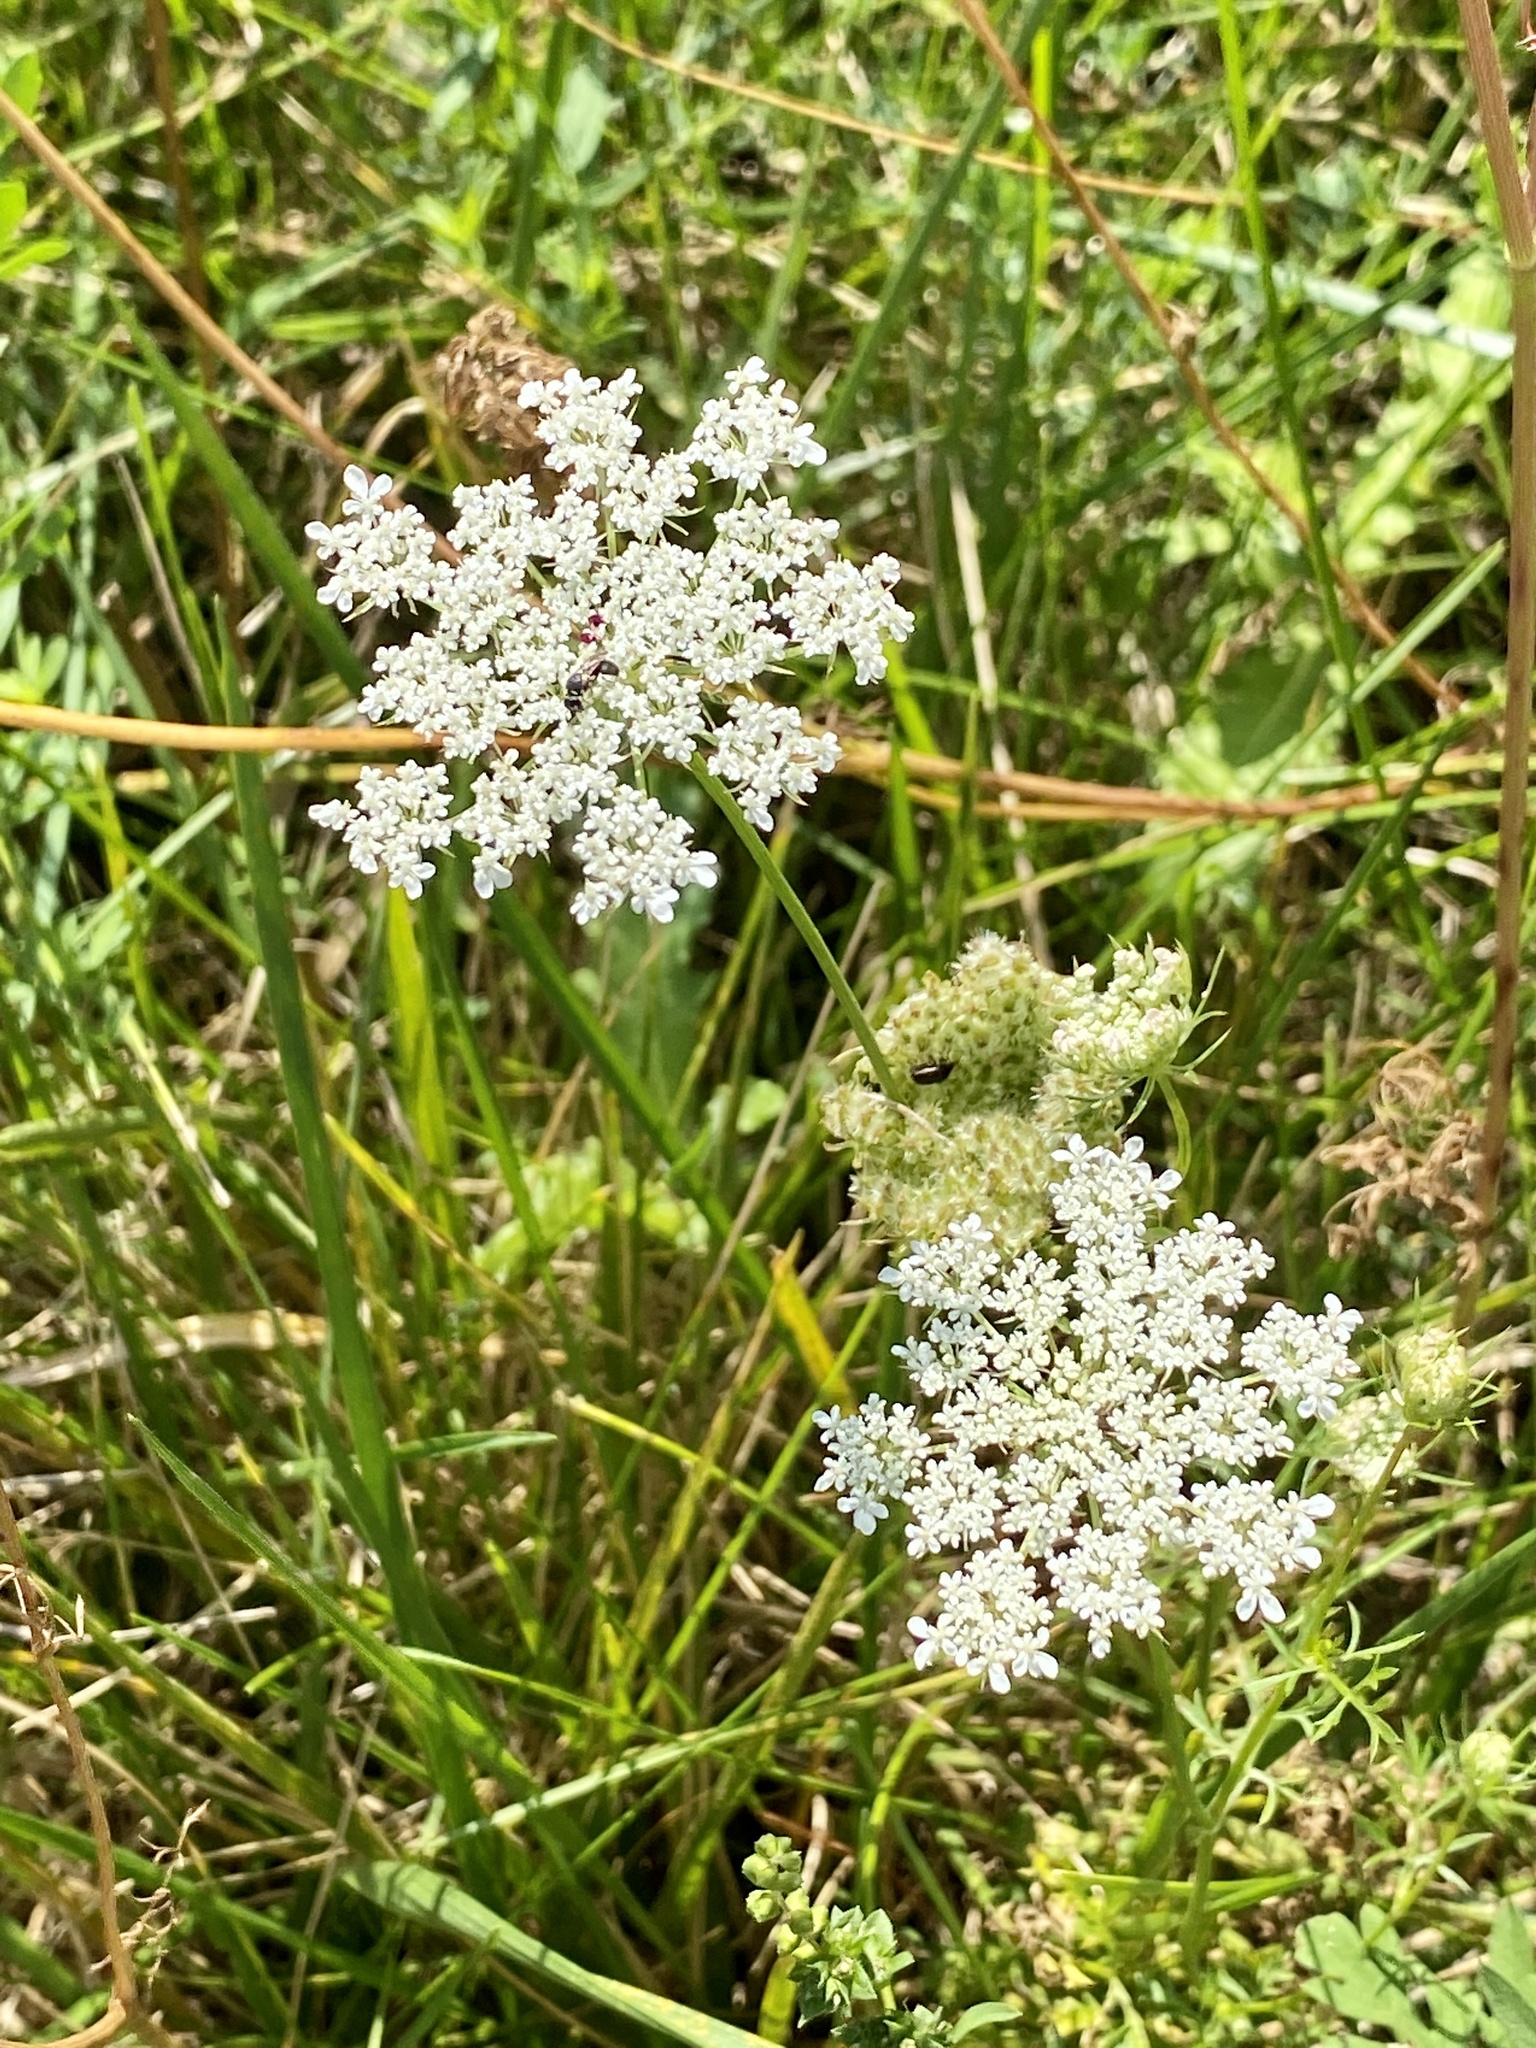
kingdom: Plantae
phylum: Tracheophyta
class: Magnoliopsida
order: Apiales
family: Apiaceae
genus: Daucus
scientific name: Daucus carota
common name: Wild carrot
